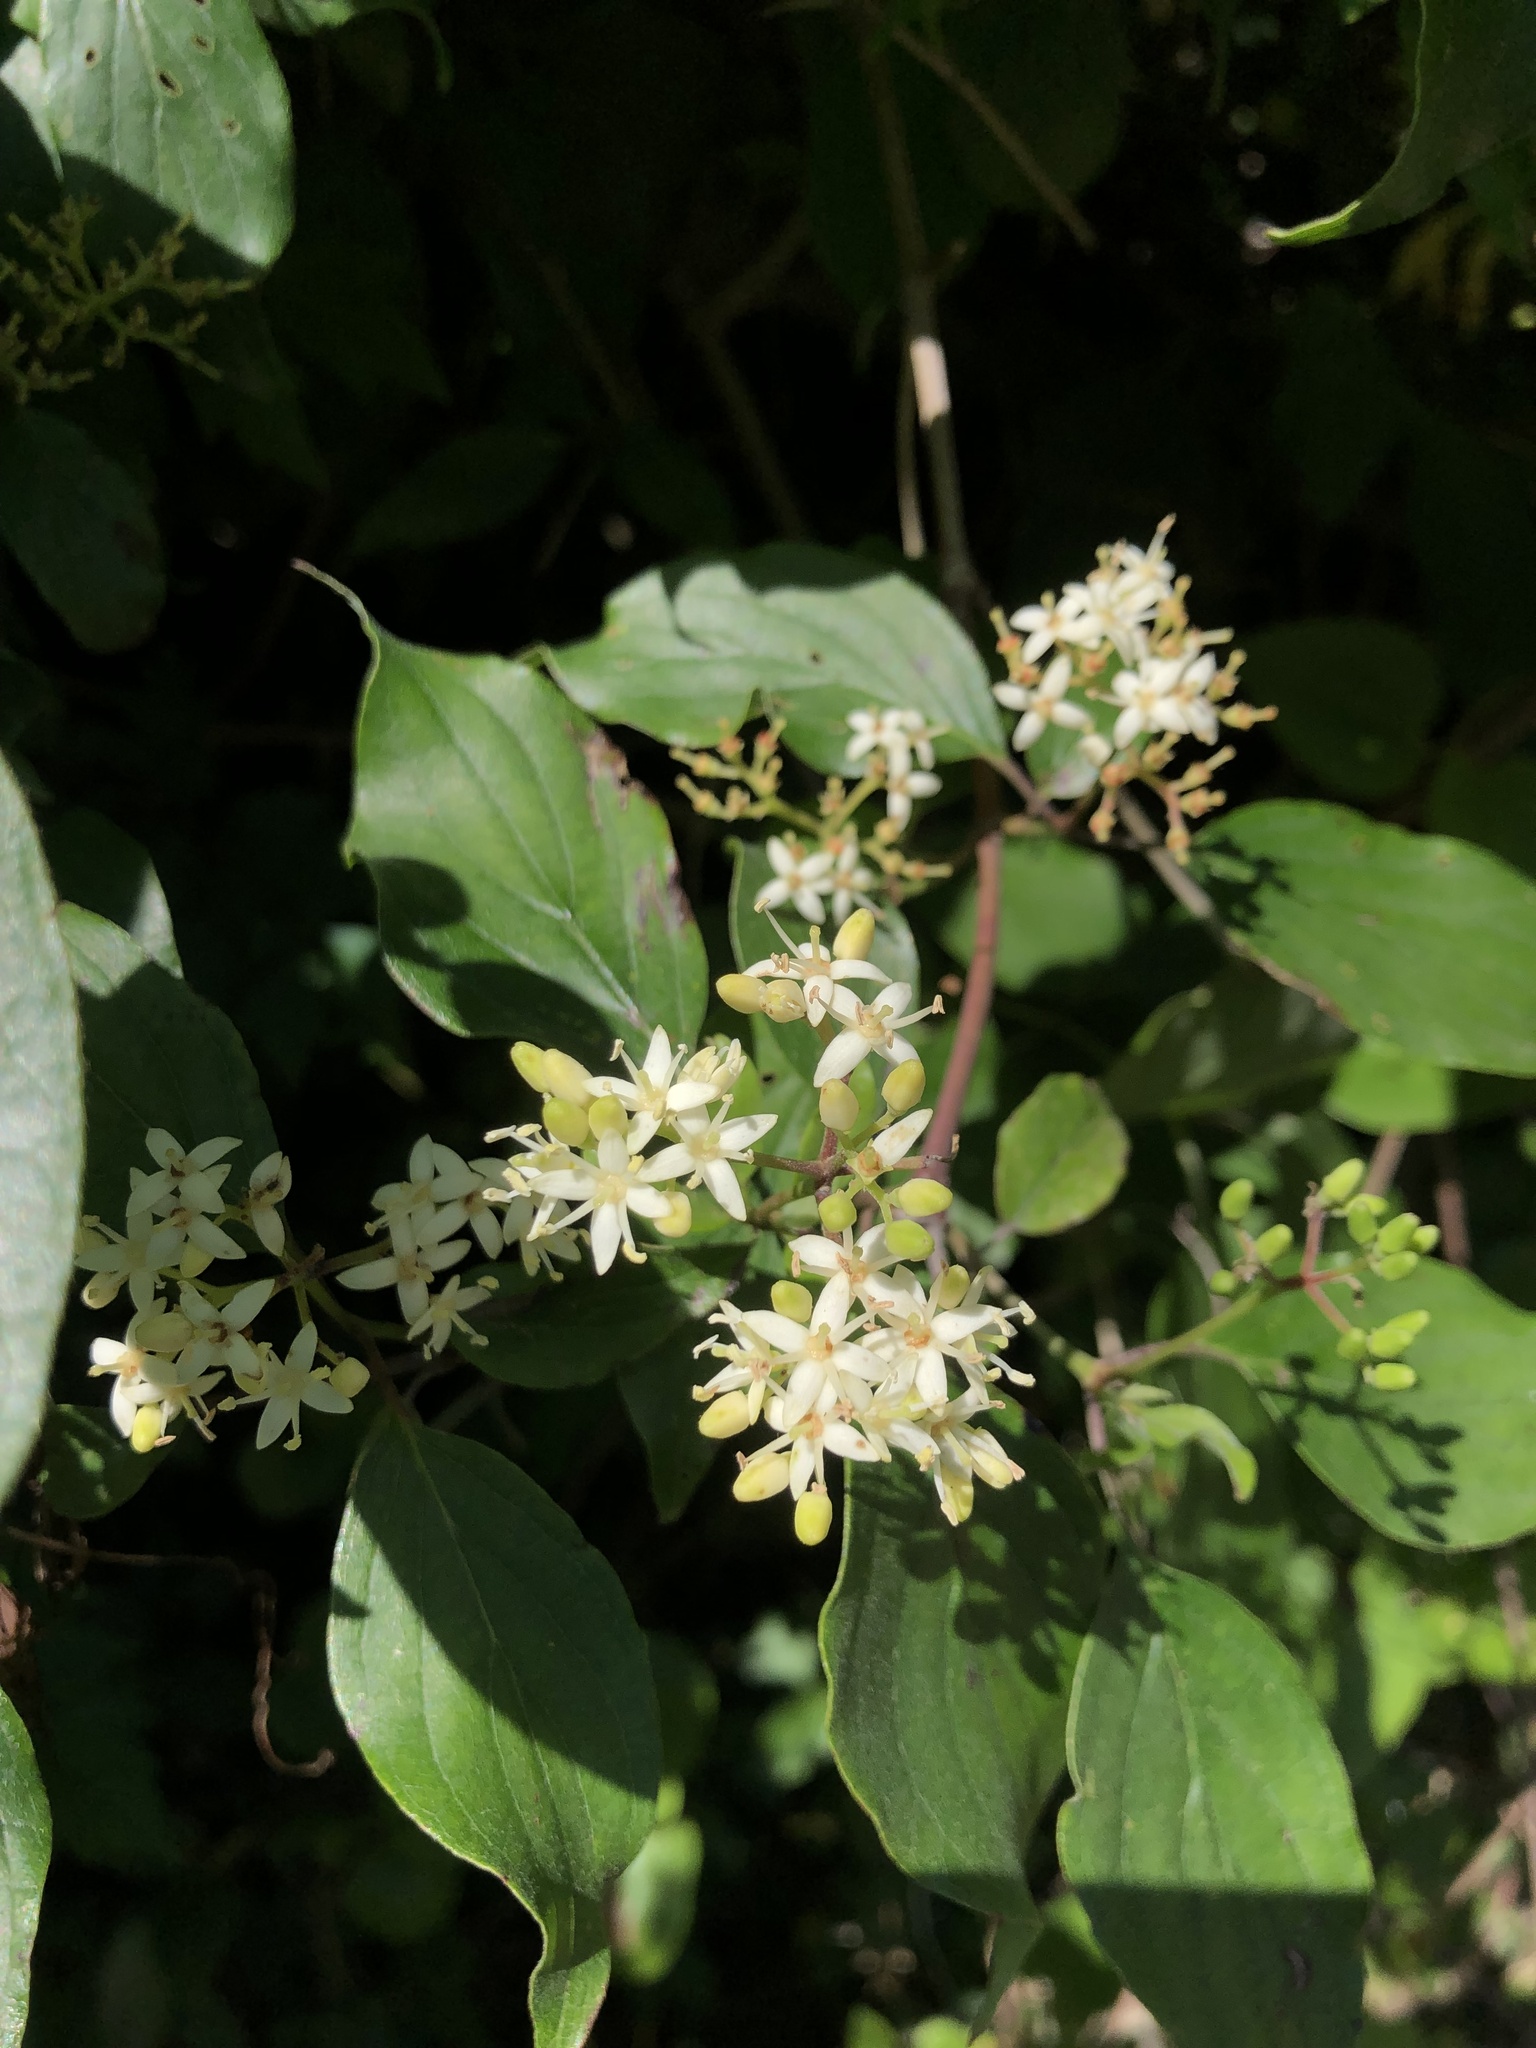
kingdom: Plantae
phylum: Tracheophyta
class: Magnoliopsida
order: Cornales
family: Cornaceae
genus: Cornus
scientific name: Cornus drummondii
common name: Rough-leaf dogwood
